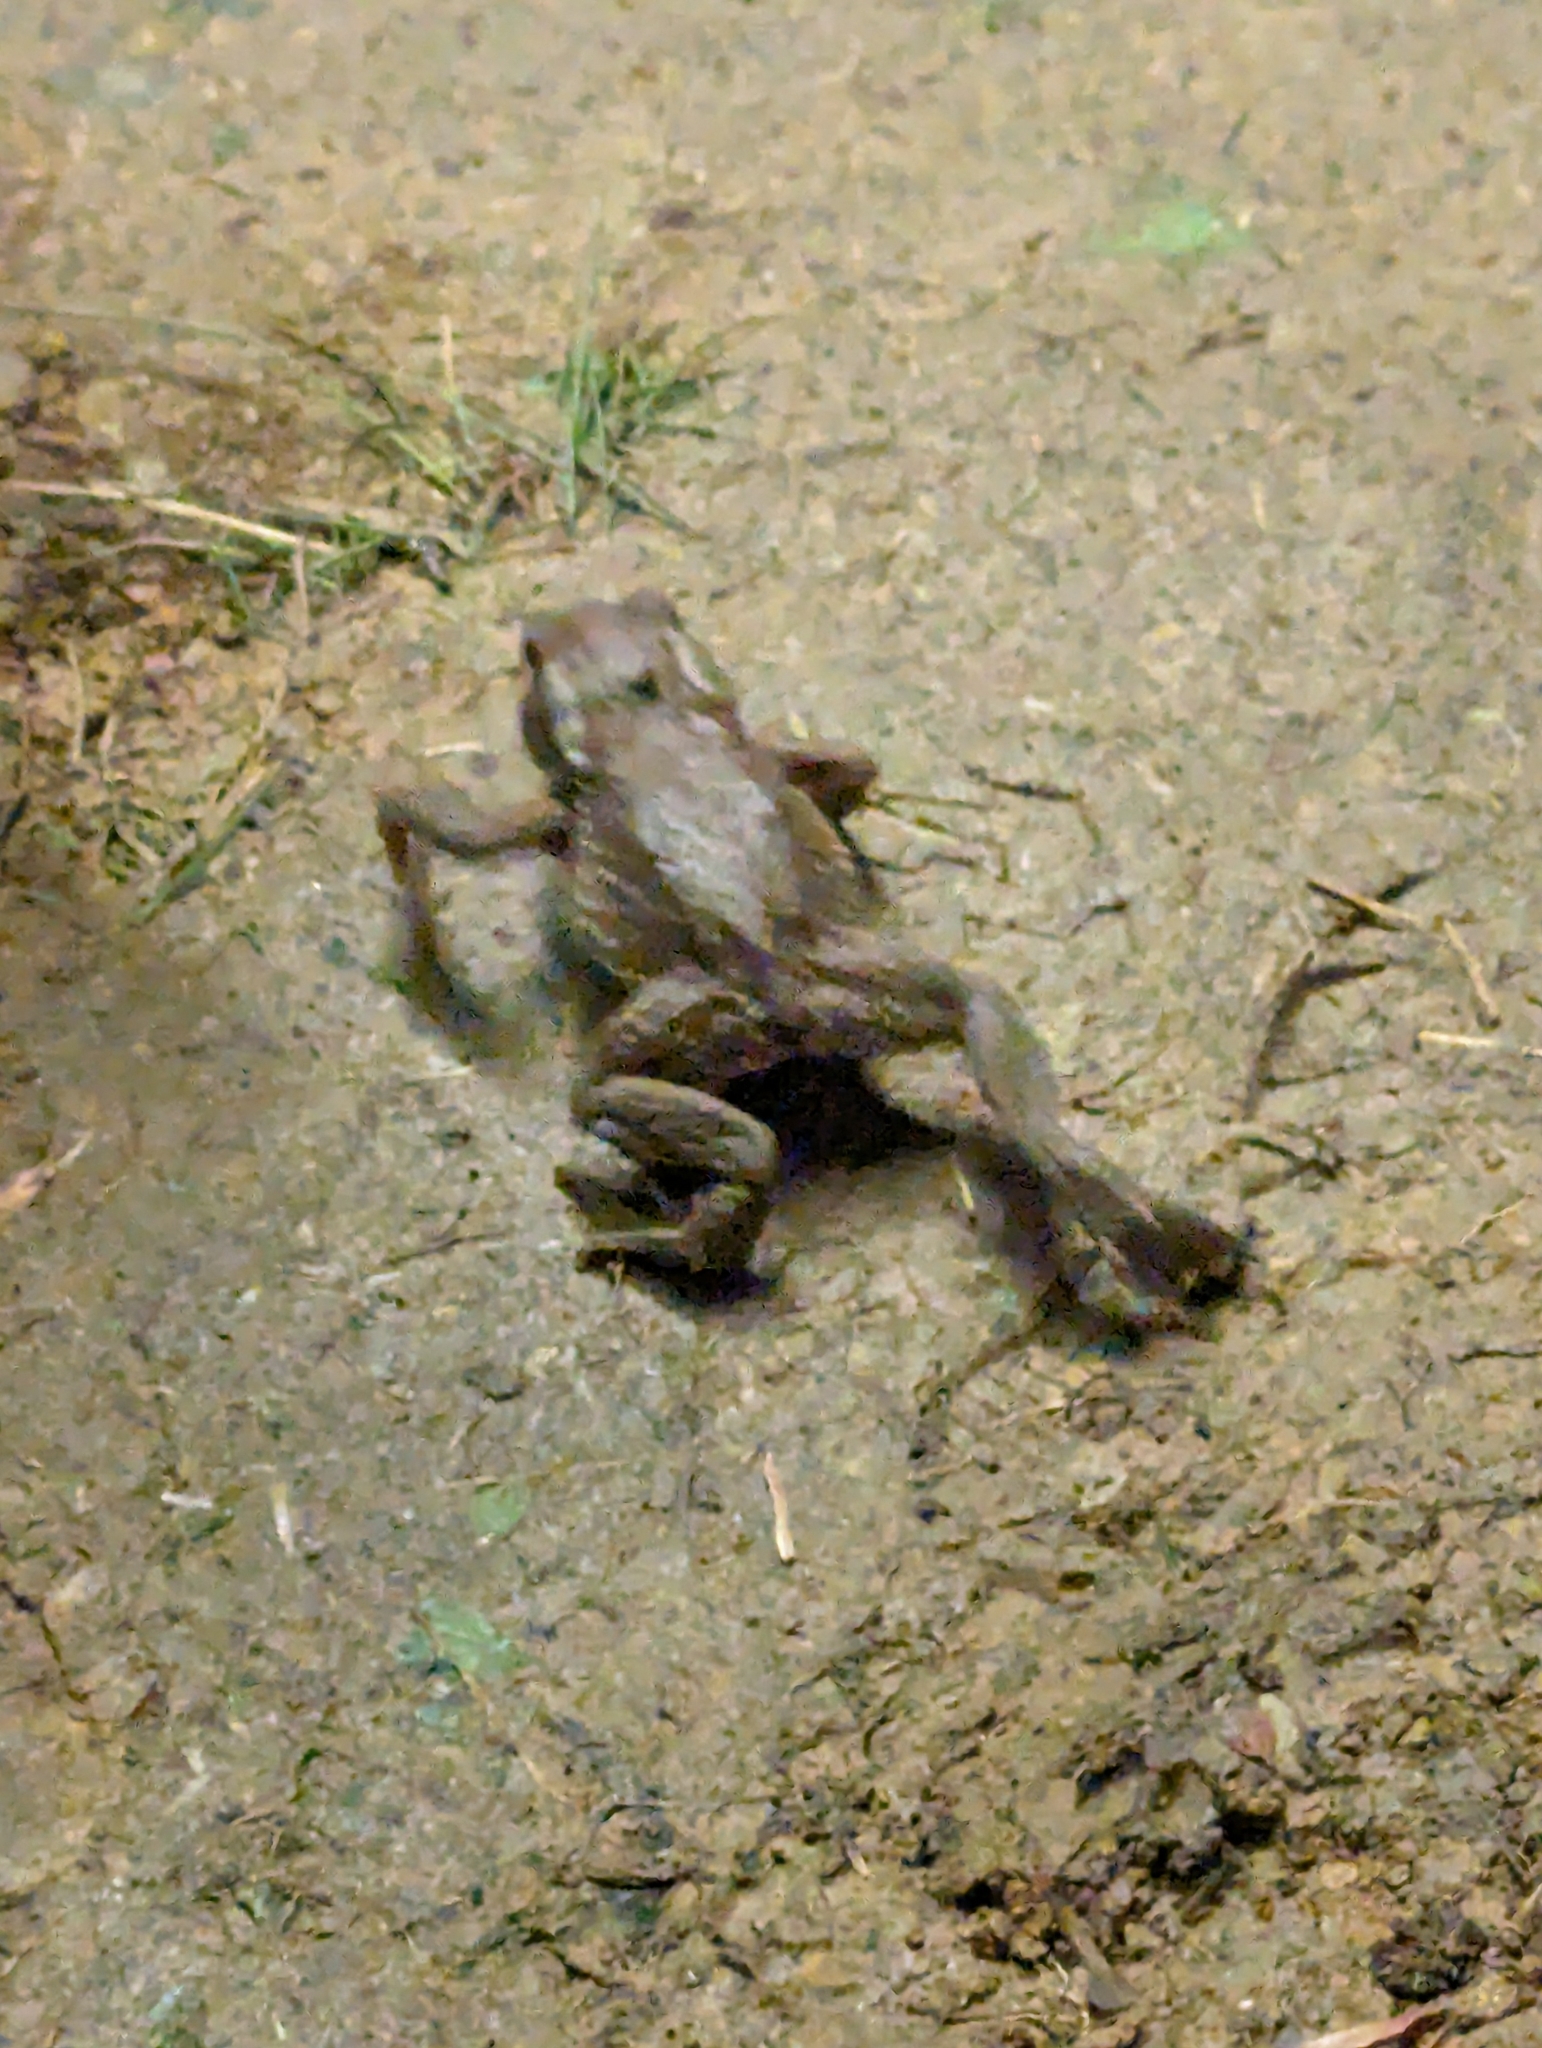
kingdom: Animalia
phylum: Arthropoda
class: Insecta
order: Coleoptera
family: Coccinellidae
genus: Calvia
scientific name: Calvia muiri
